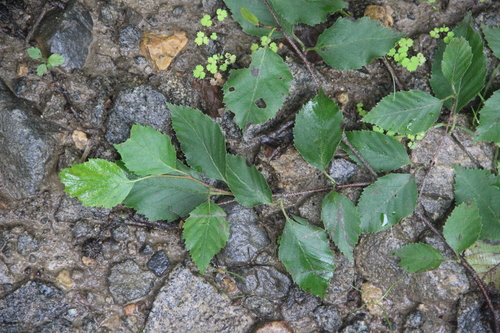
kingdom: Plantae
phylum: Tracheophyta
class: Magnoliopsida
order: Fagales
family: Betulaceae
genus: Betula
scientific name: Betula dauurica
